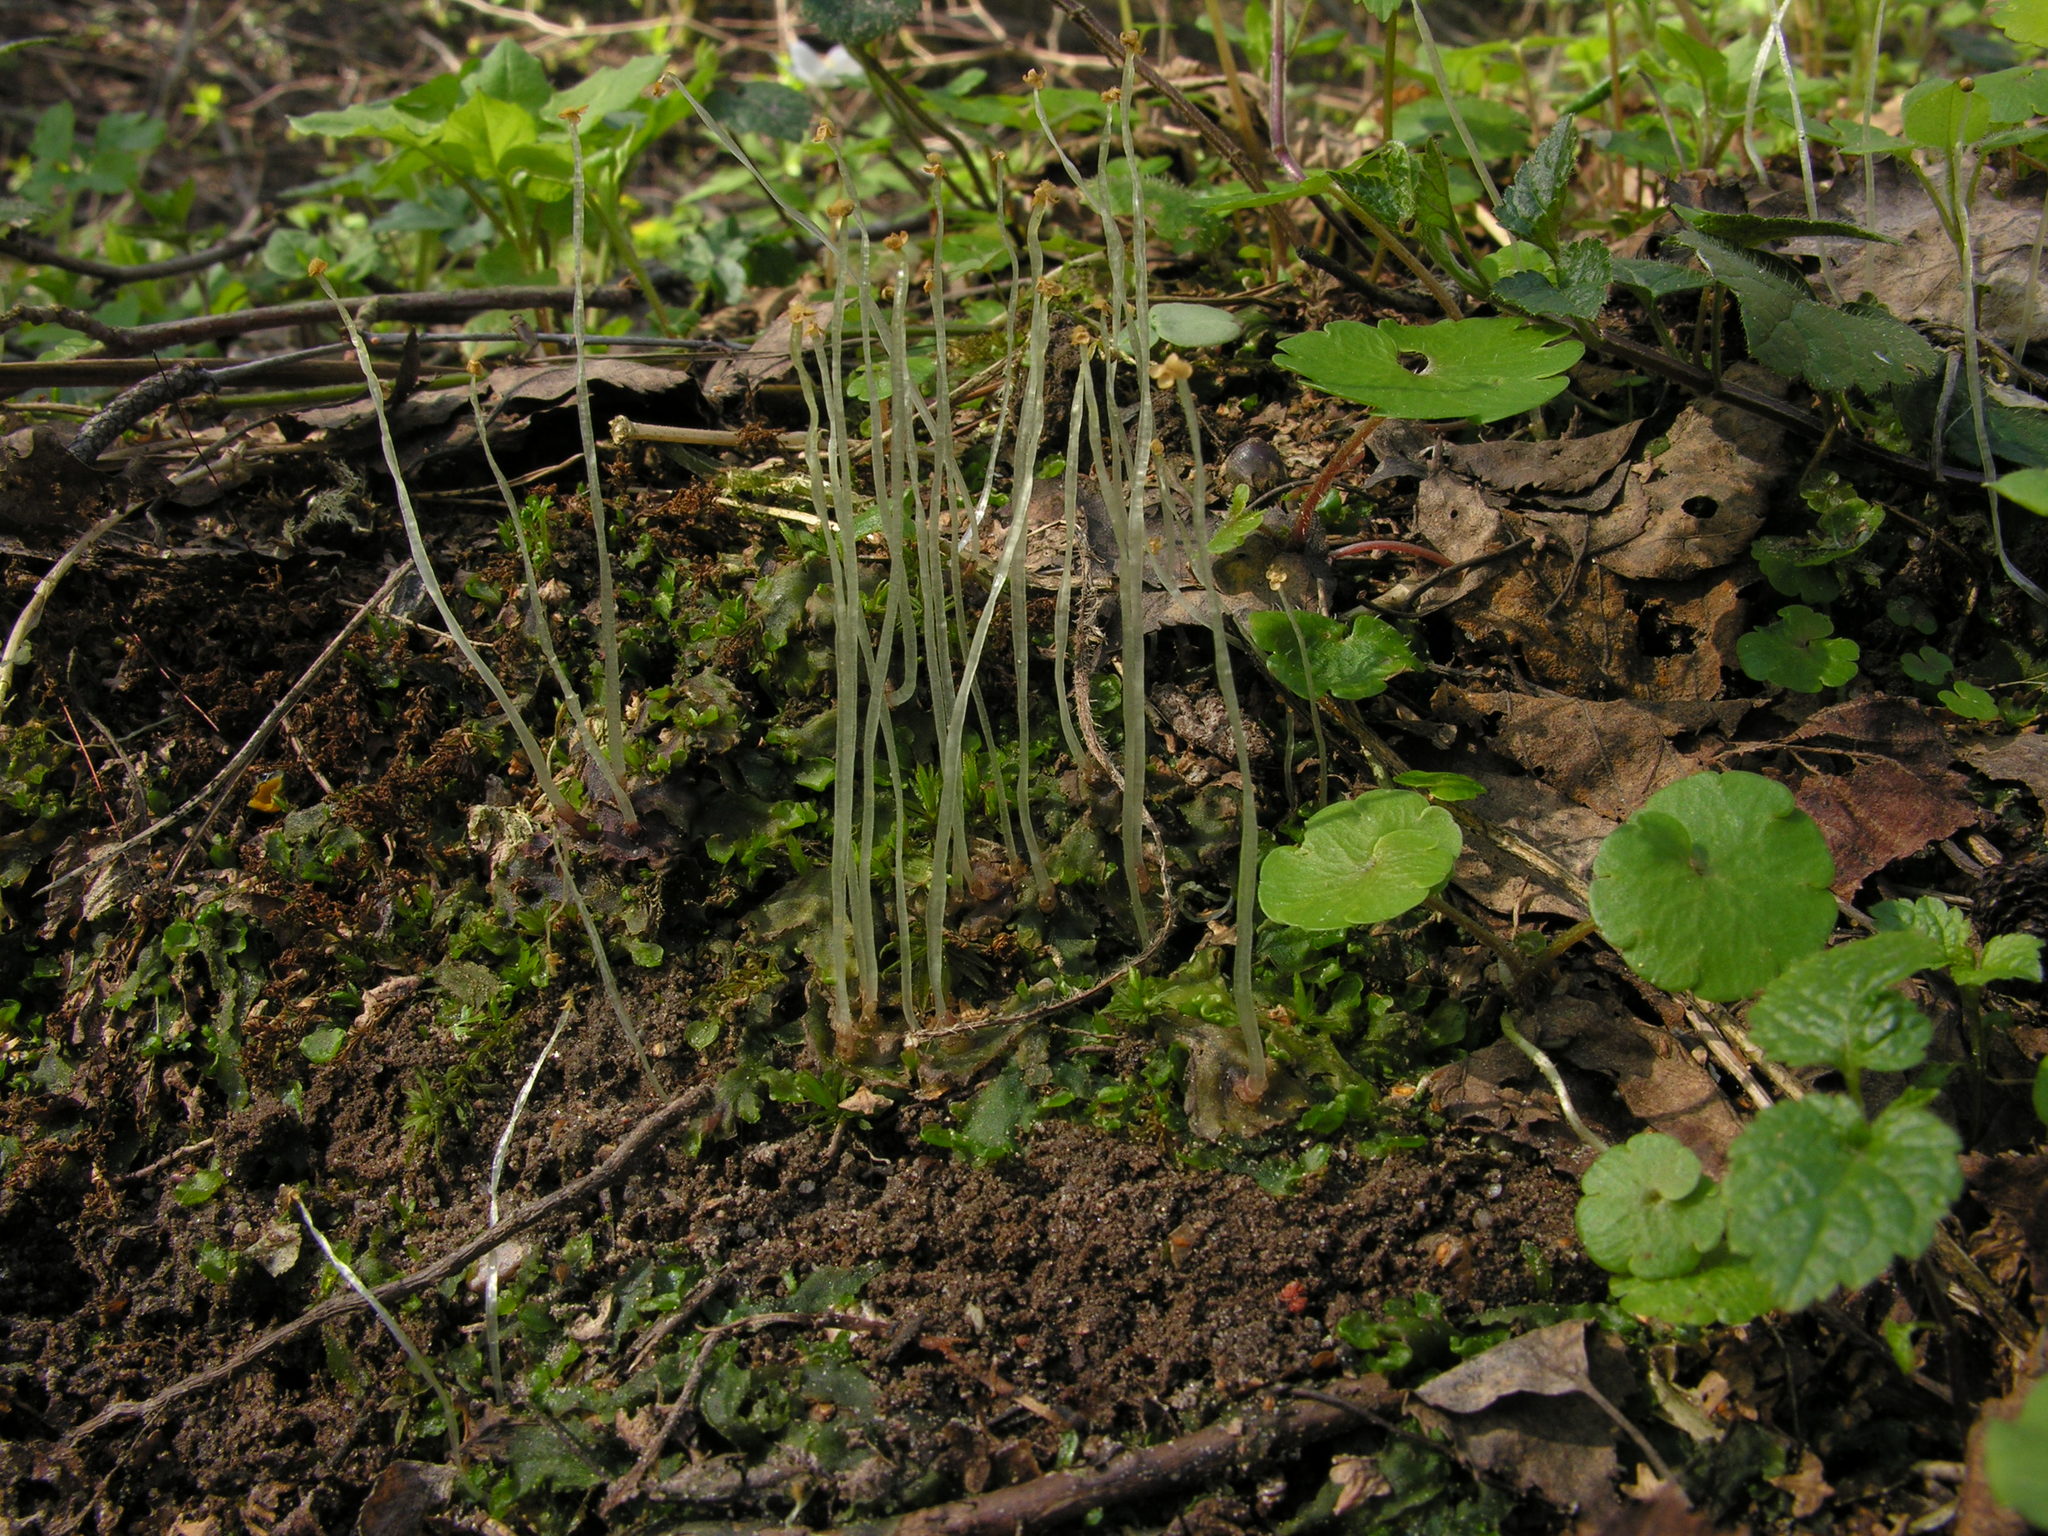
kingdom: Plantae
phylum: Marchantiophyta
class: Jungermanniopsida
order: Pelliales
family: Pelliaceae
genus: Pellia
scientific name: Pellia epiphylla
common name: Common pellia
